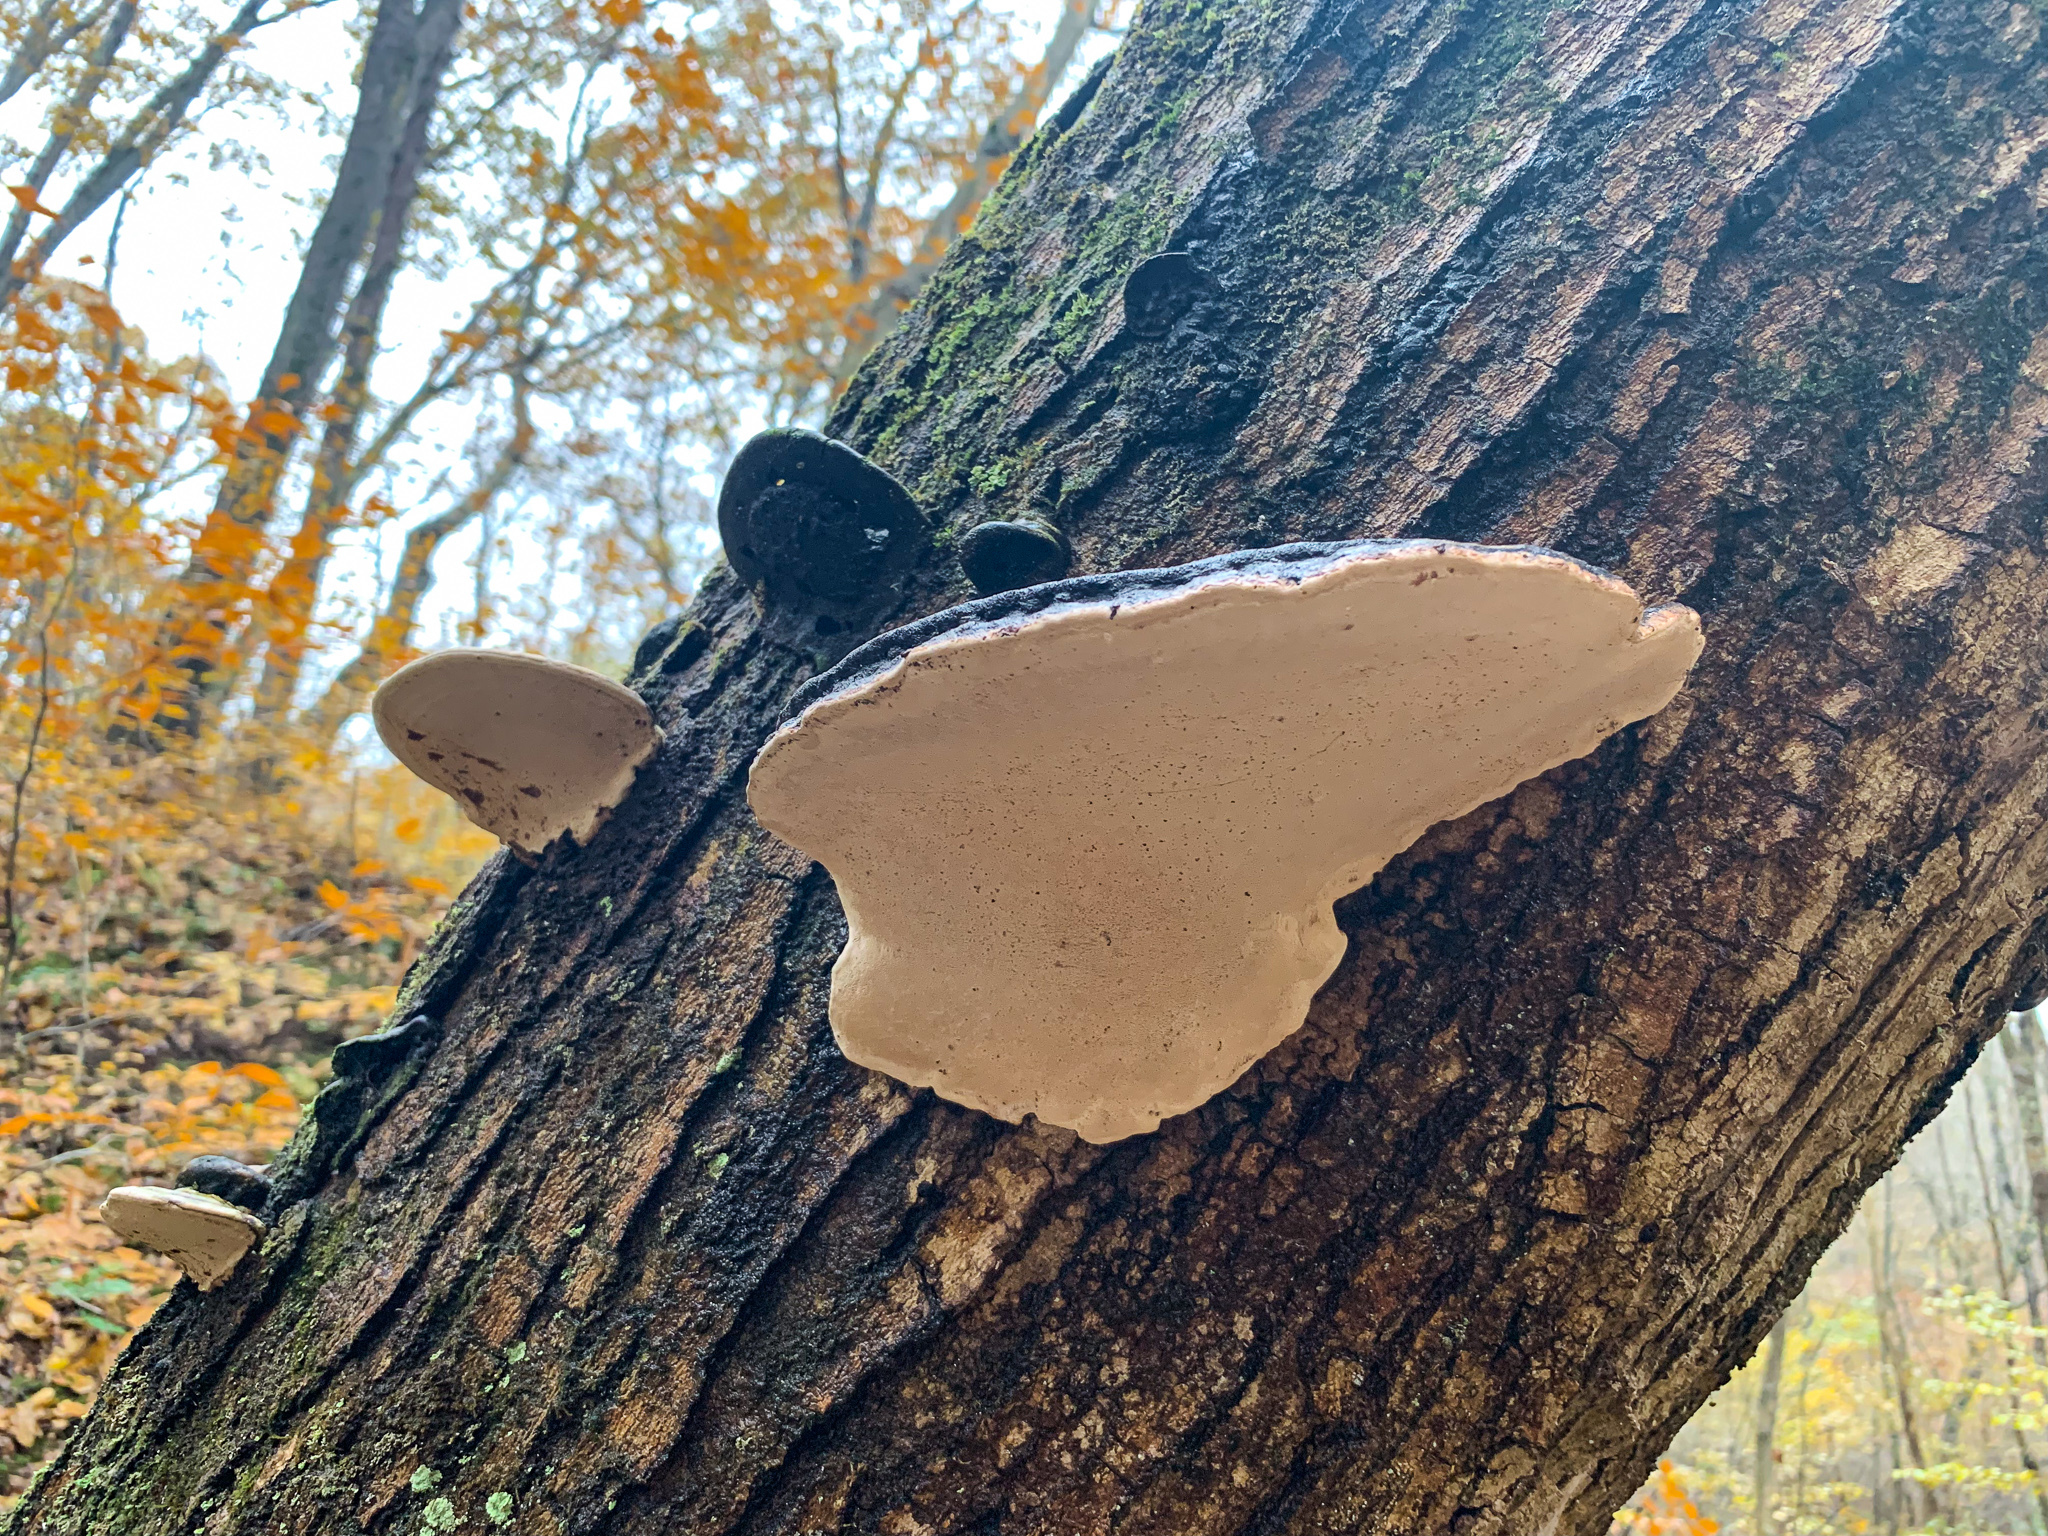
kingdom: Fungi
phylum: Basidiomycota
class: Agaricomycetes
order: Polyporales
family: Polyporaceae
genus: Ganoderma
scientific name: Ganoderma applanatum
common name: Artist's bracket
